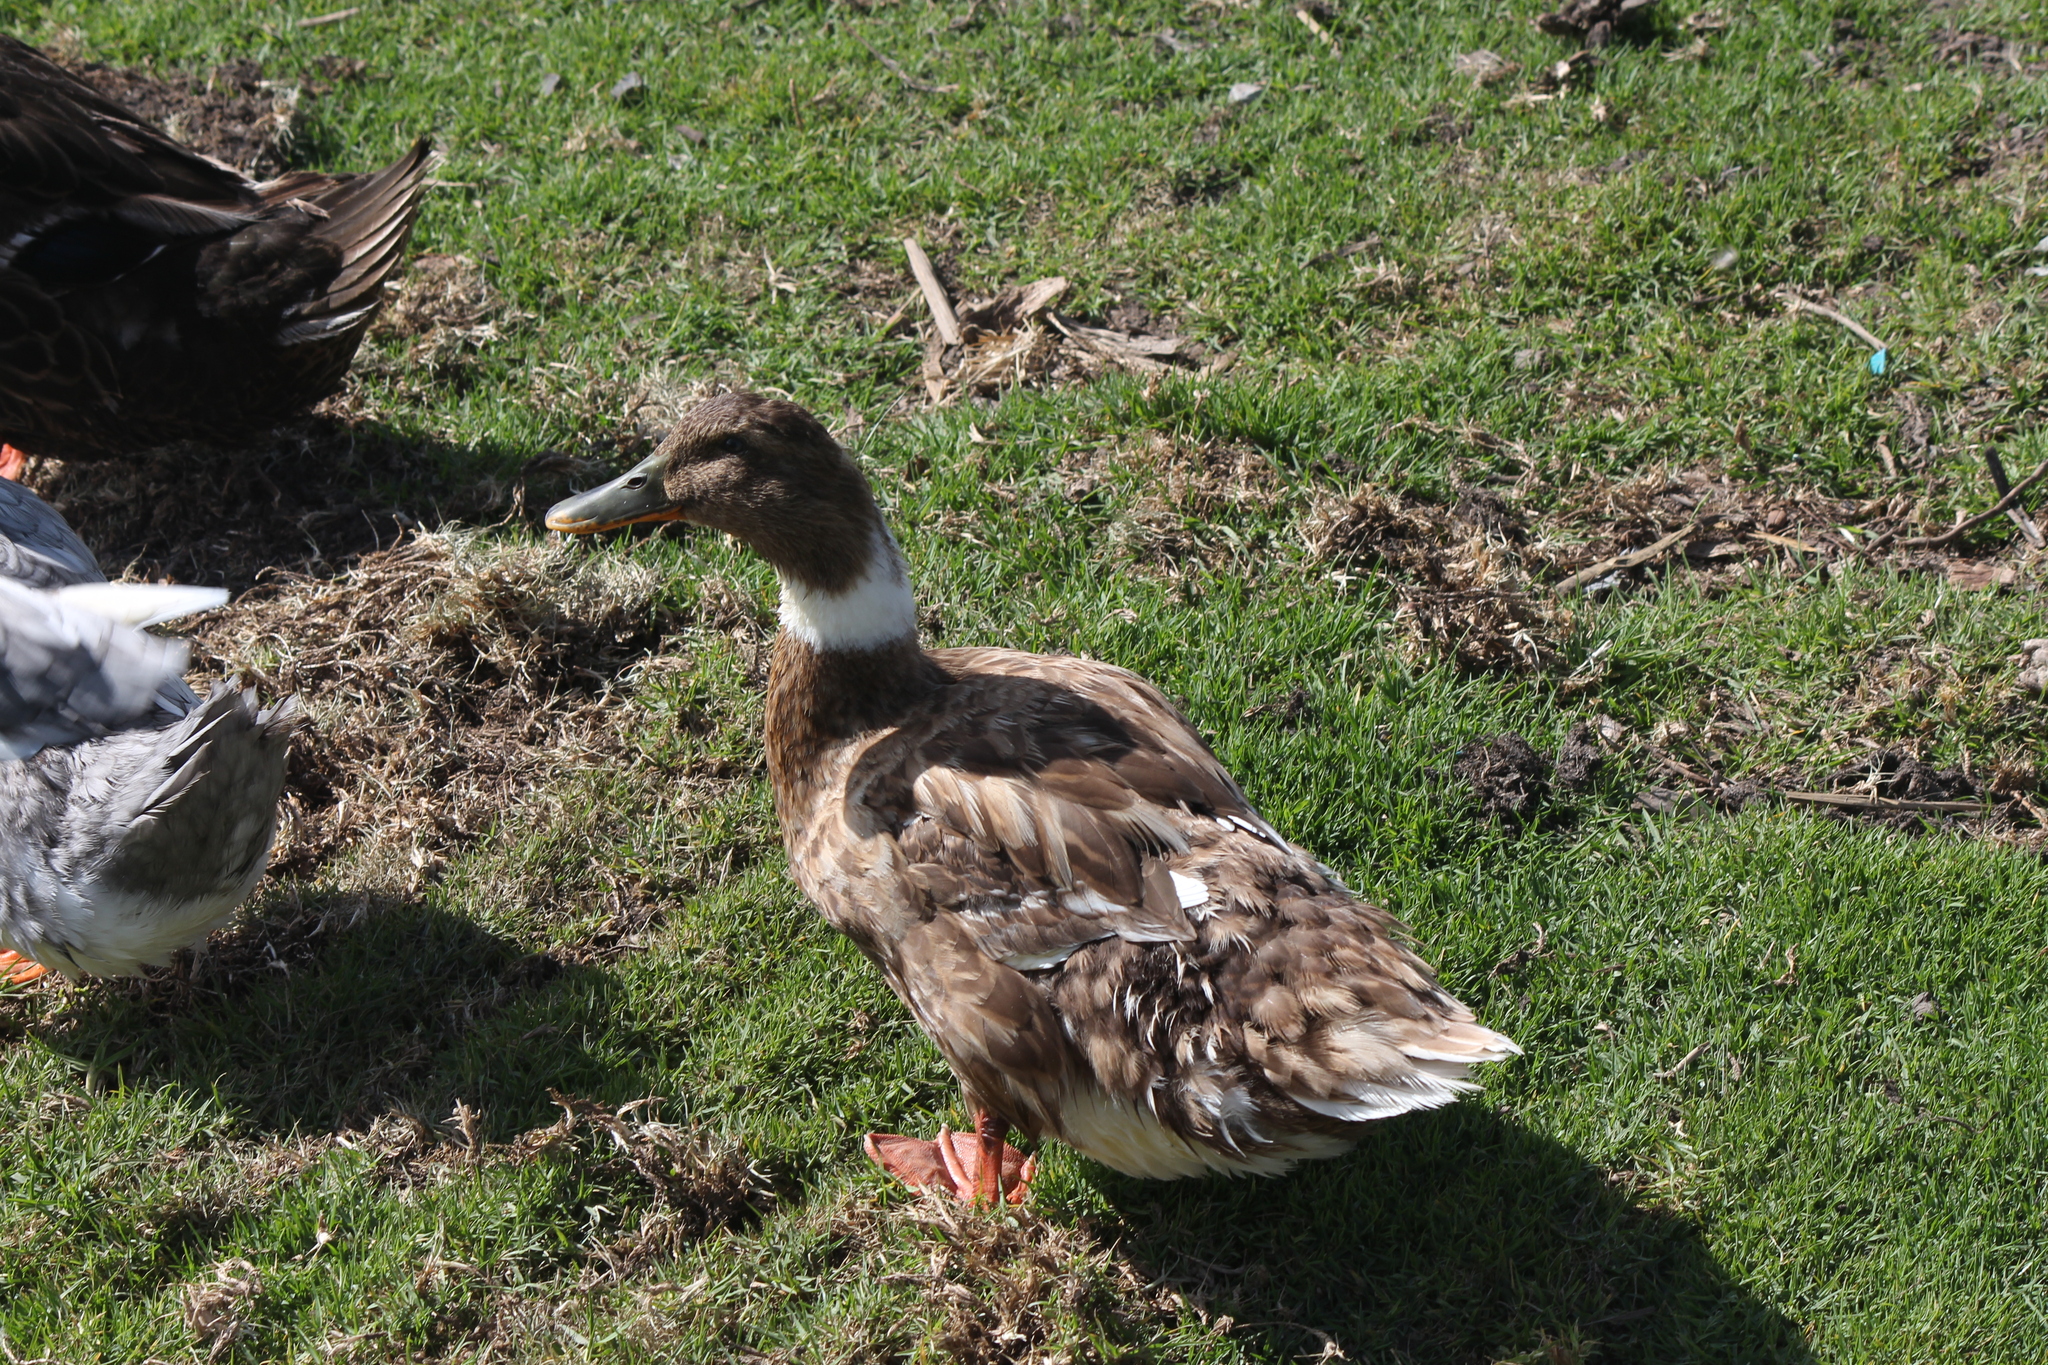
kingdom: Animalia
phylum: Chordata
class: Aves
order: Anseriformes
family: Anatidae
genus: Anas
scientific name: Anas platyrhynchos
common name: Mallard
